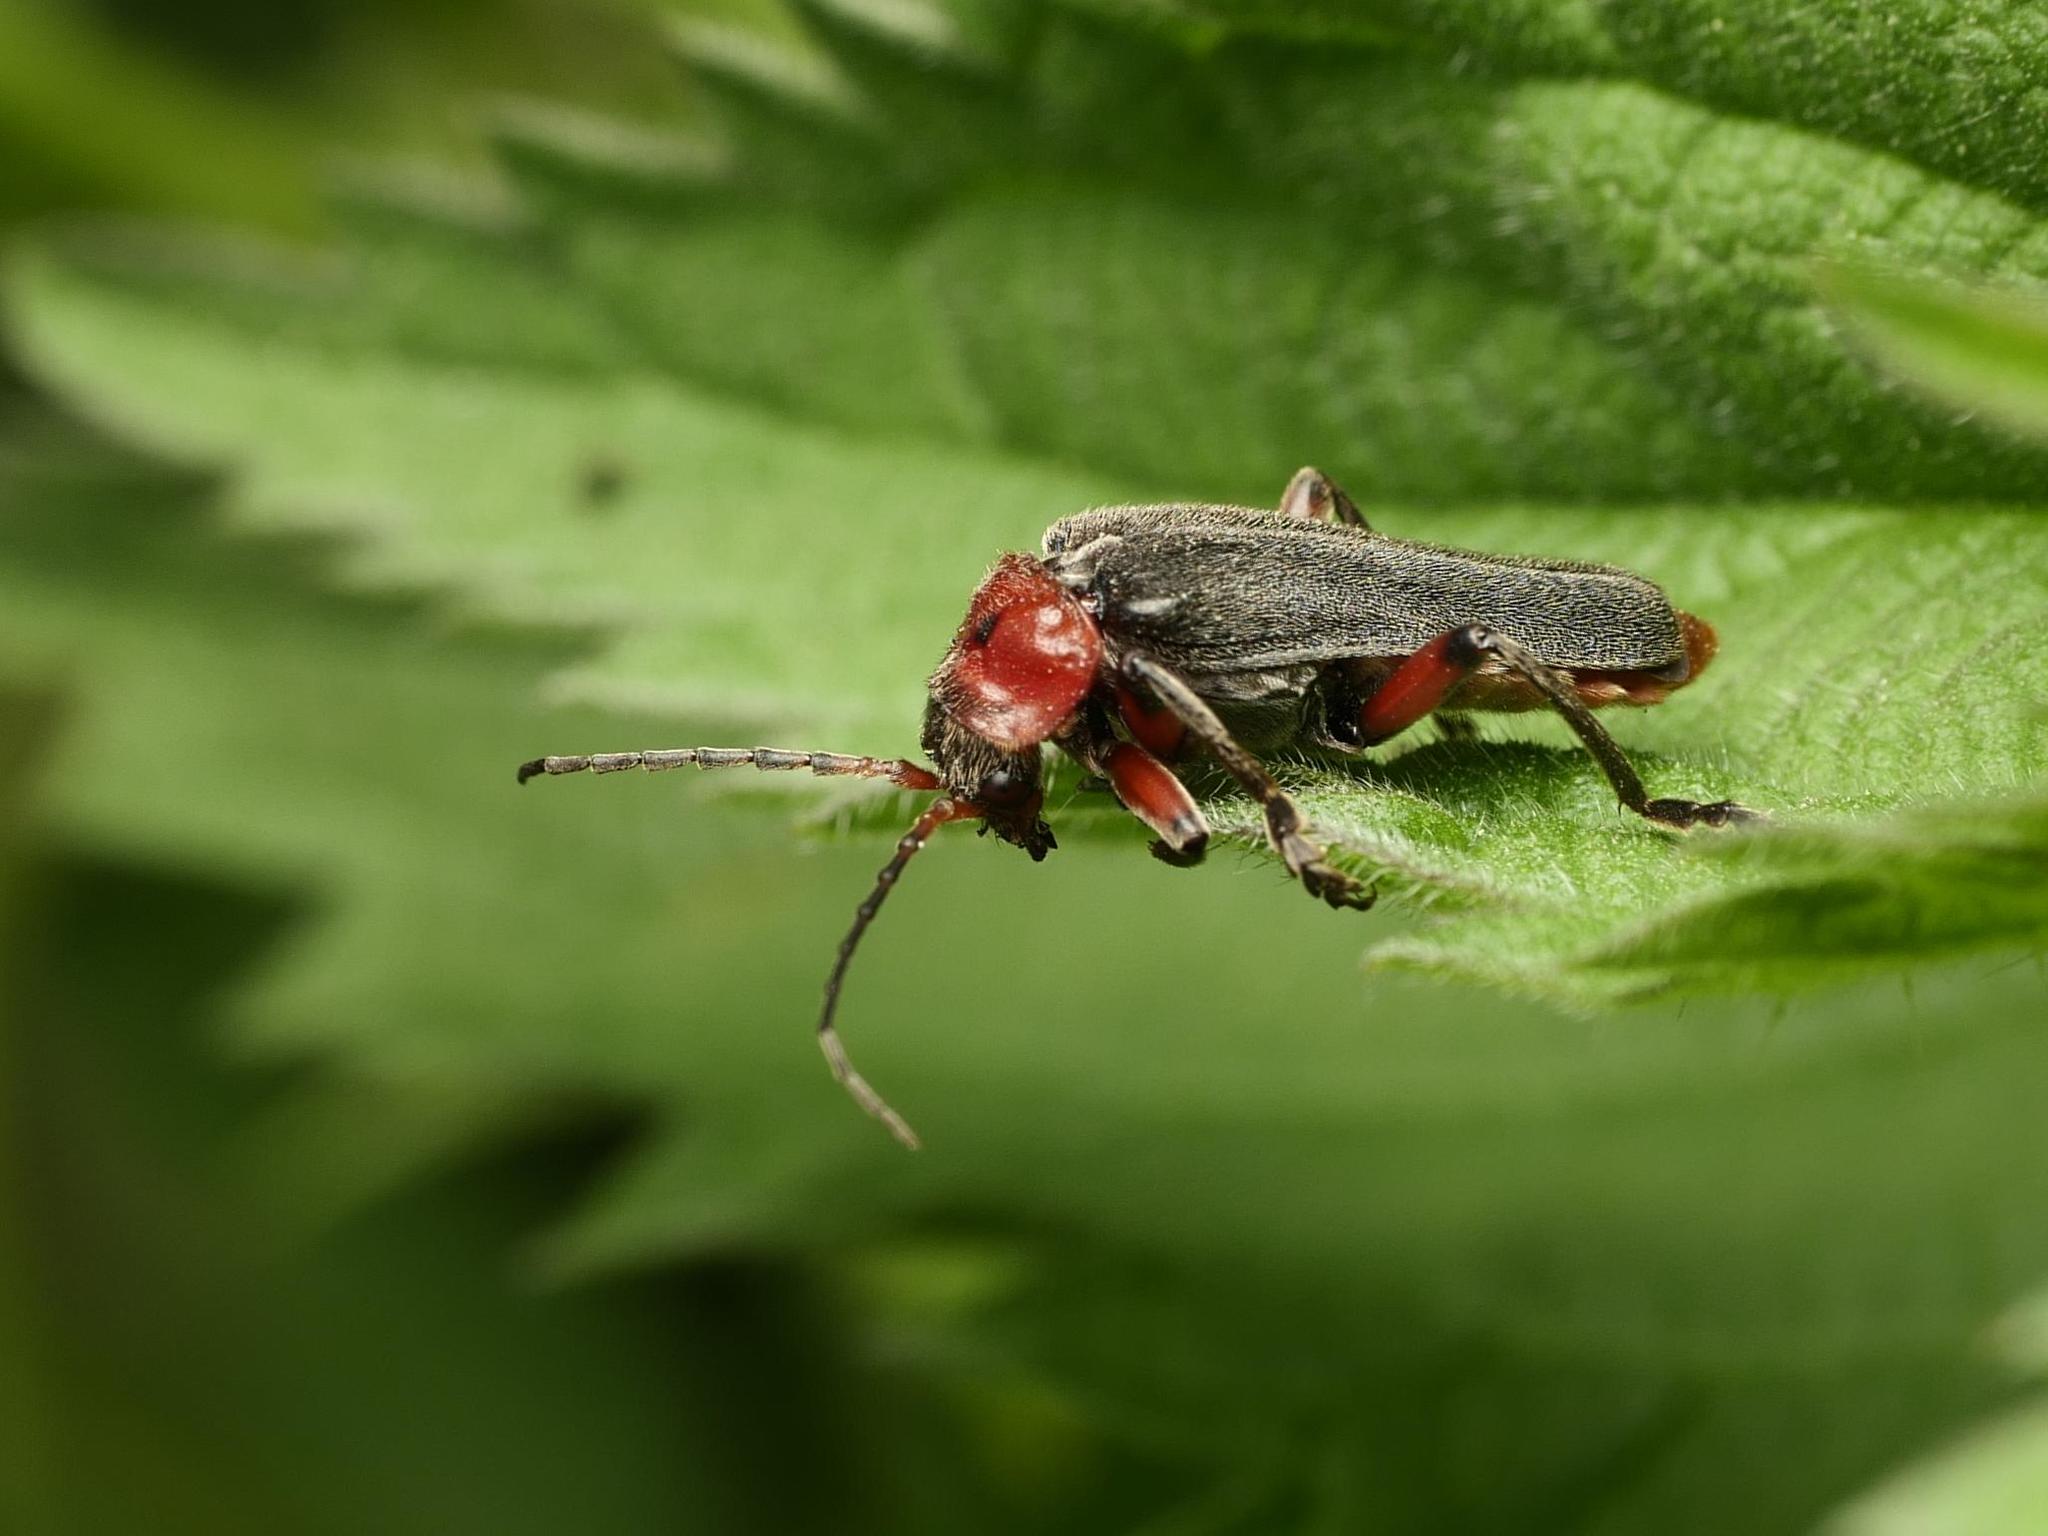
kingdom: Animalia
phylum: Arthropoda
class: Insecta
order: Coleoptera
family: Cantharidae
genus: Cantharis
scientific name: Cantharis rustica
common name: Soldier beetle
